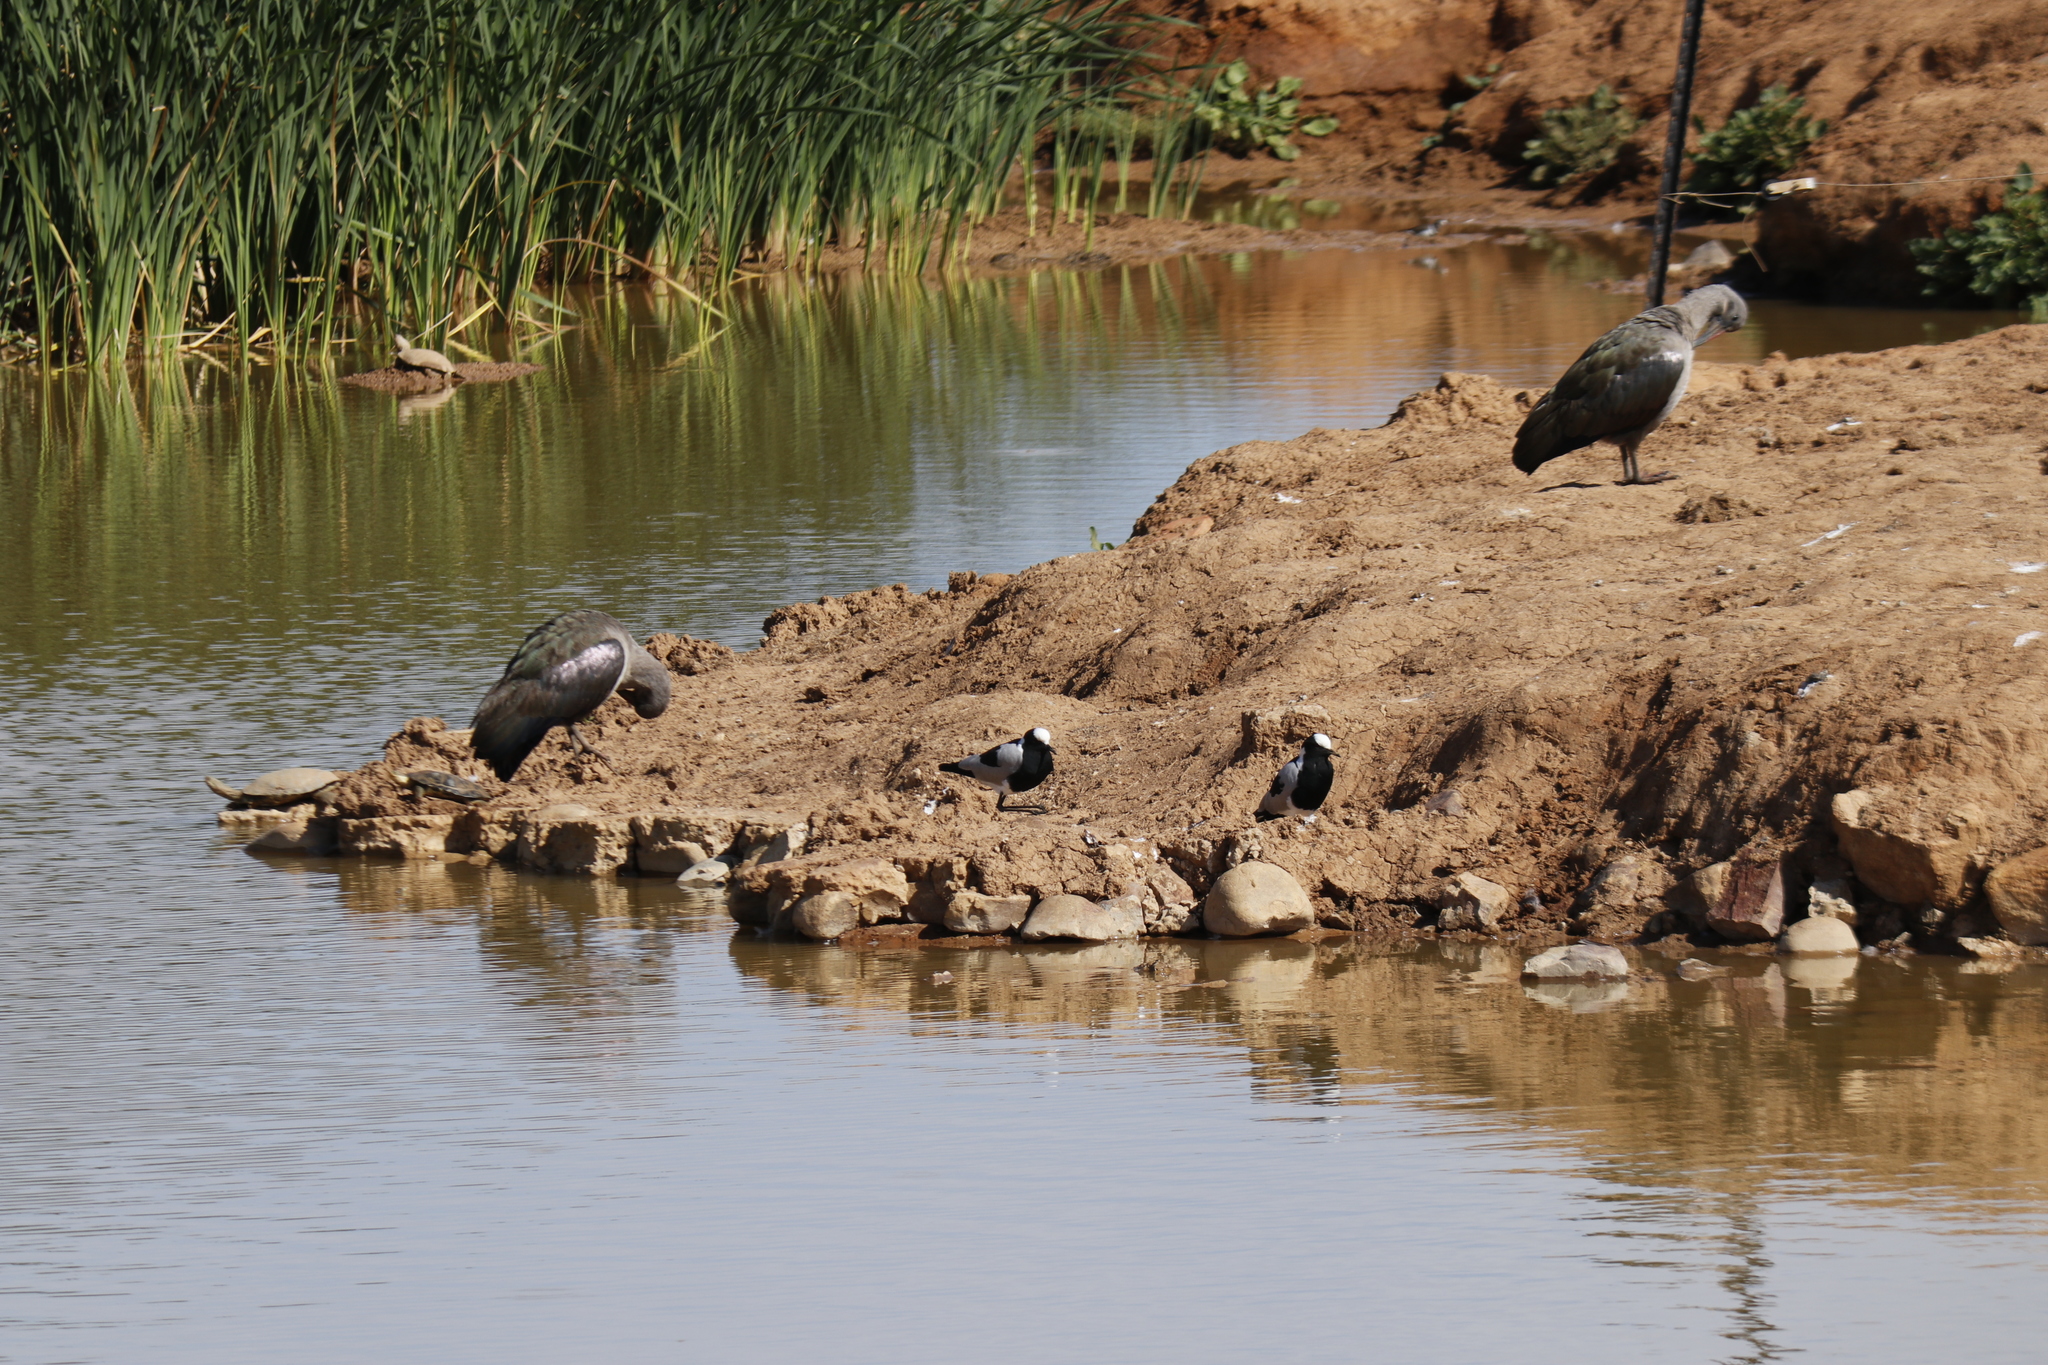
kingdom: Animalia
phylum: Chordata
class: Aves
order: Pelecaniformes
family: Threskiornithidae
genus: Bostrychia
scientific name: Bostrychia hagedash
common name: Hadada ibis
